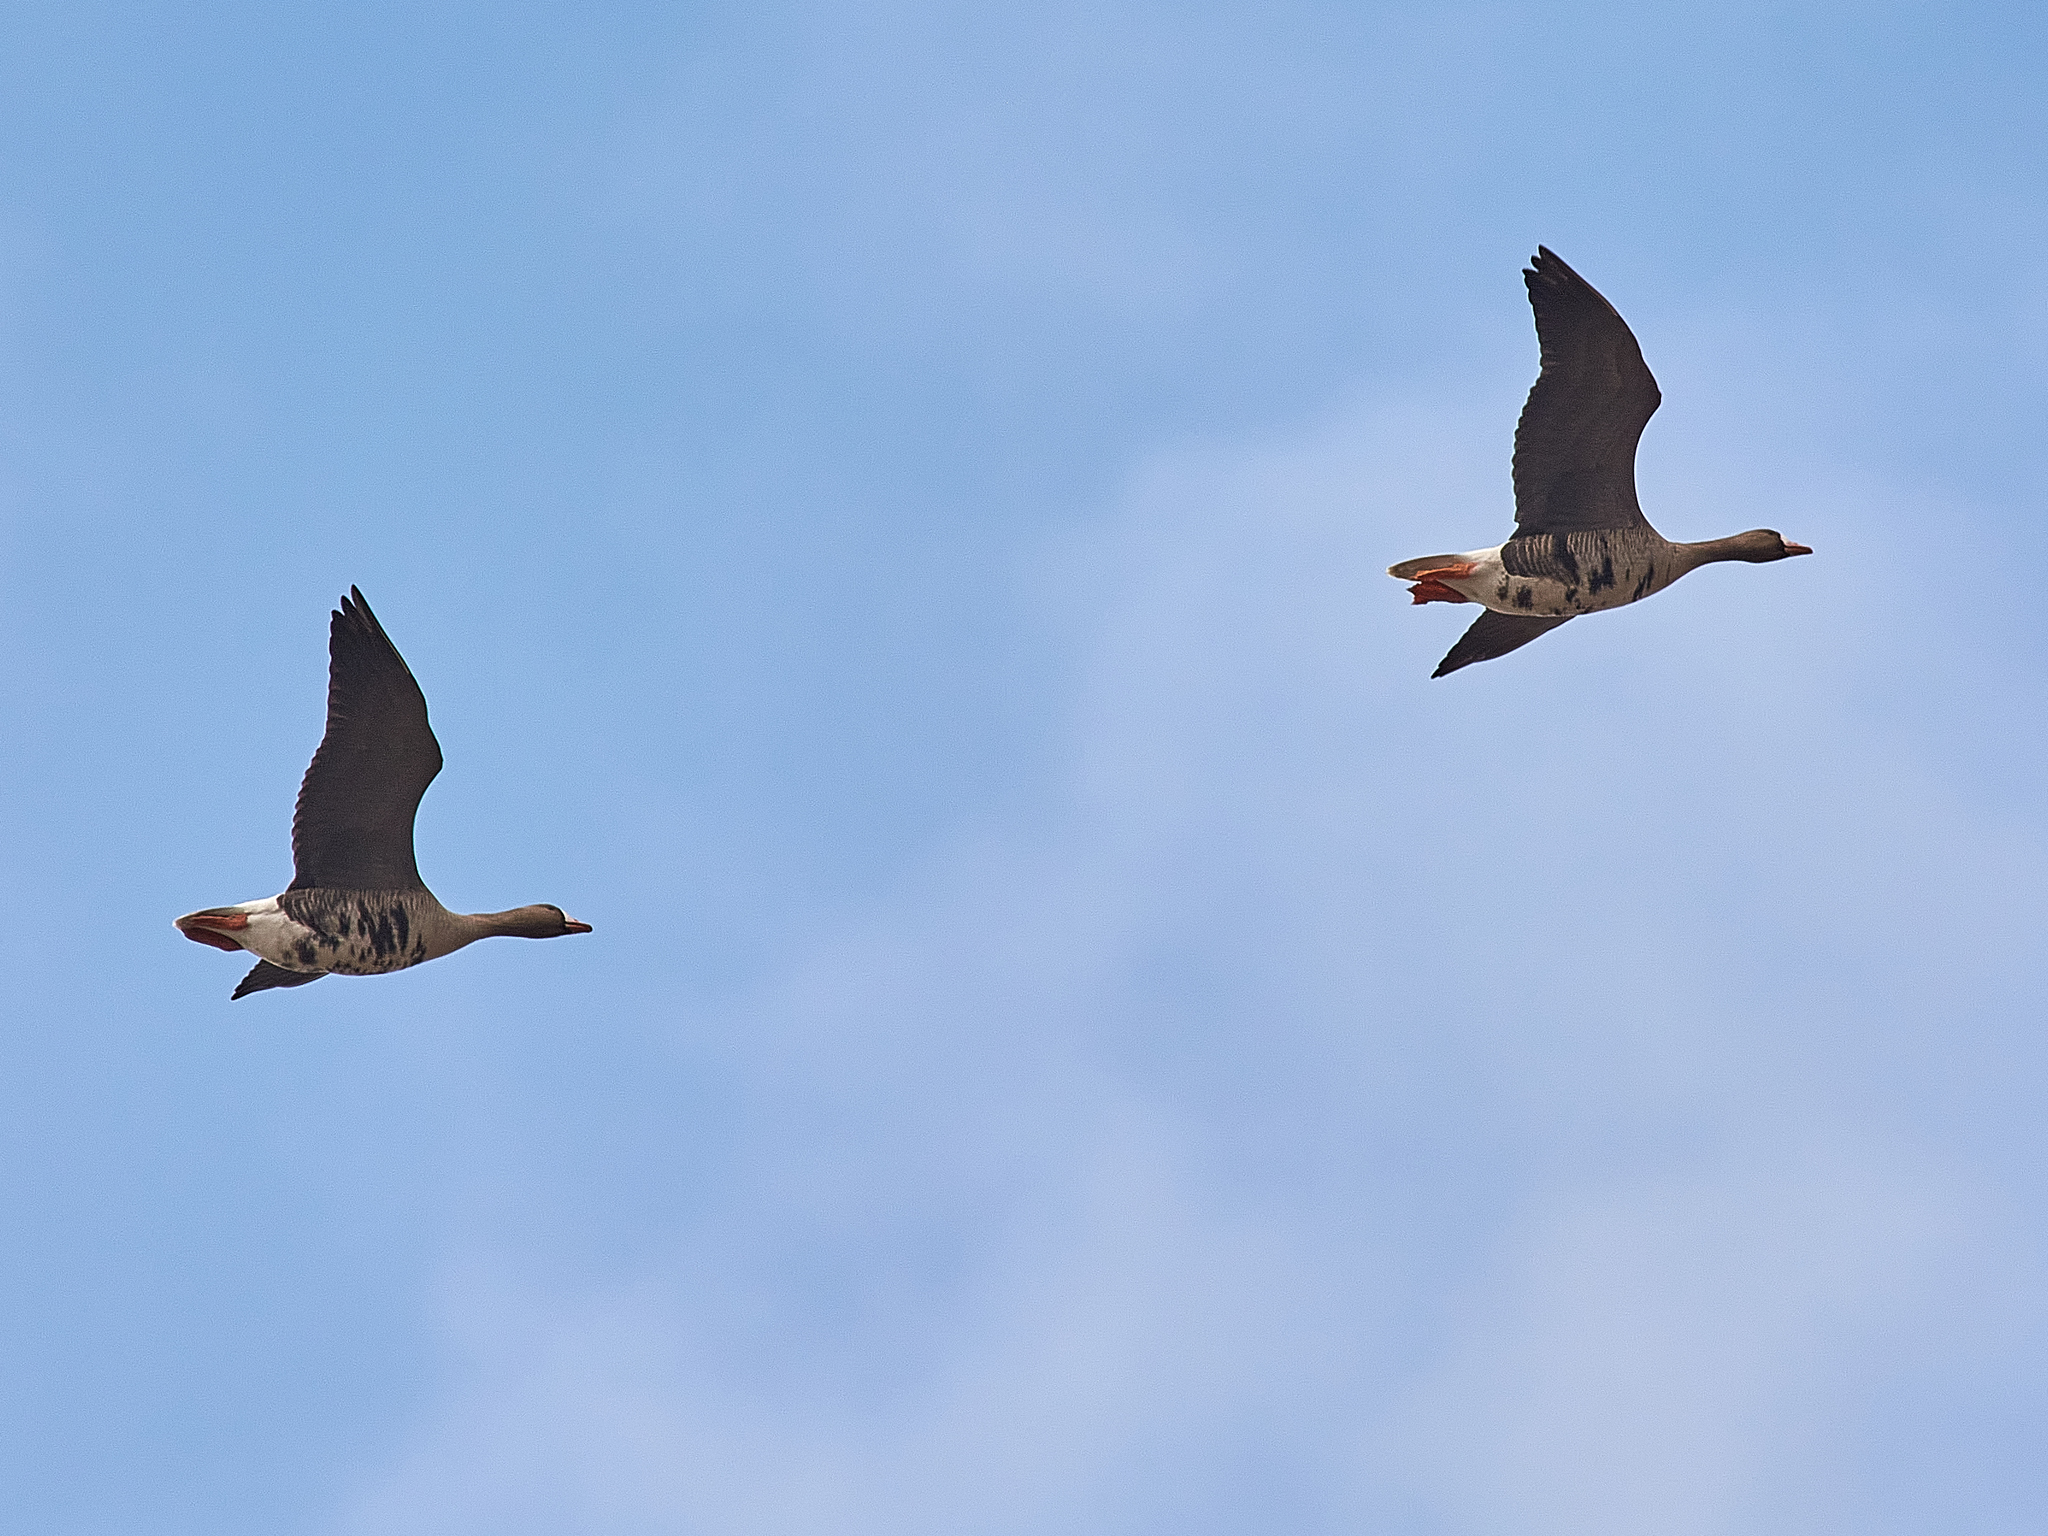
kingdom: Animalia
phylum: Chordata
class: Aves
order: Anseriformes
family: Anatidae
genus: Anser
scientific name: Anser albifrons
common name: Greater white-fronted goose
